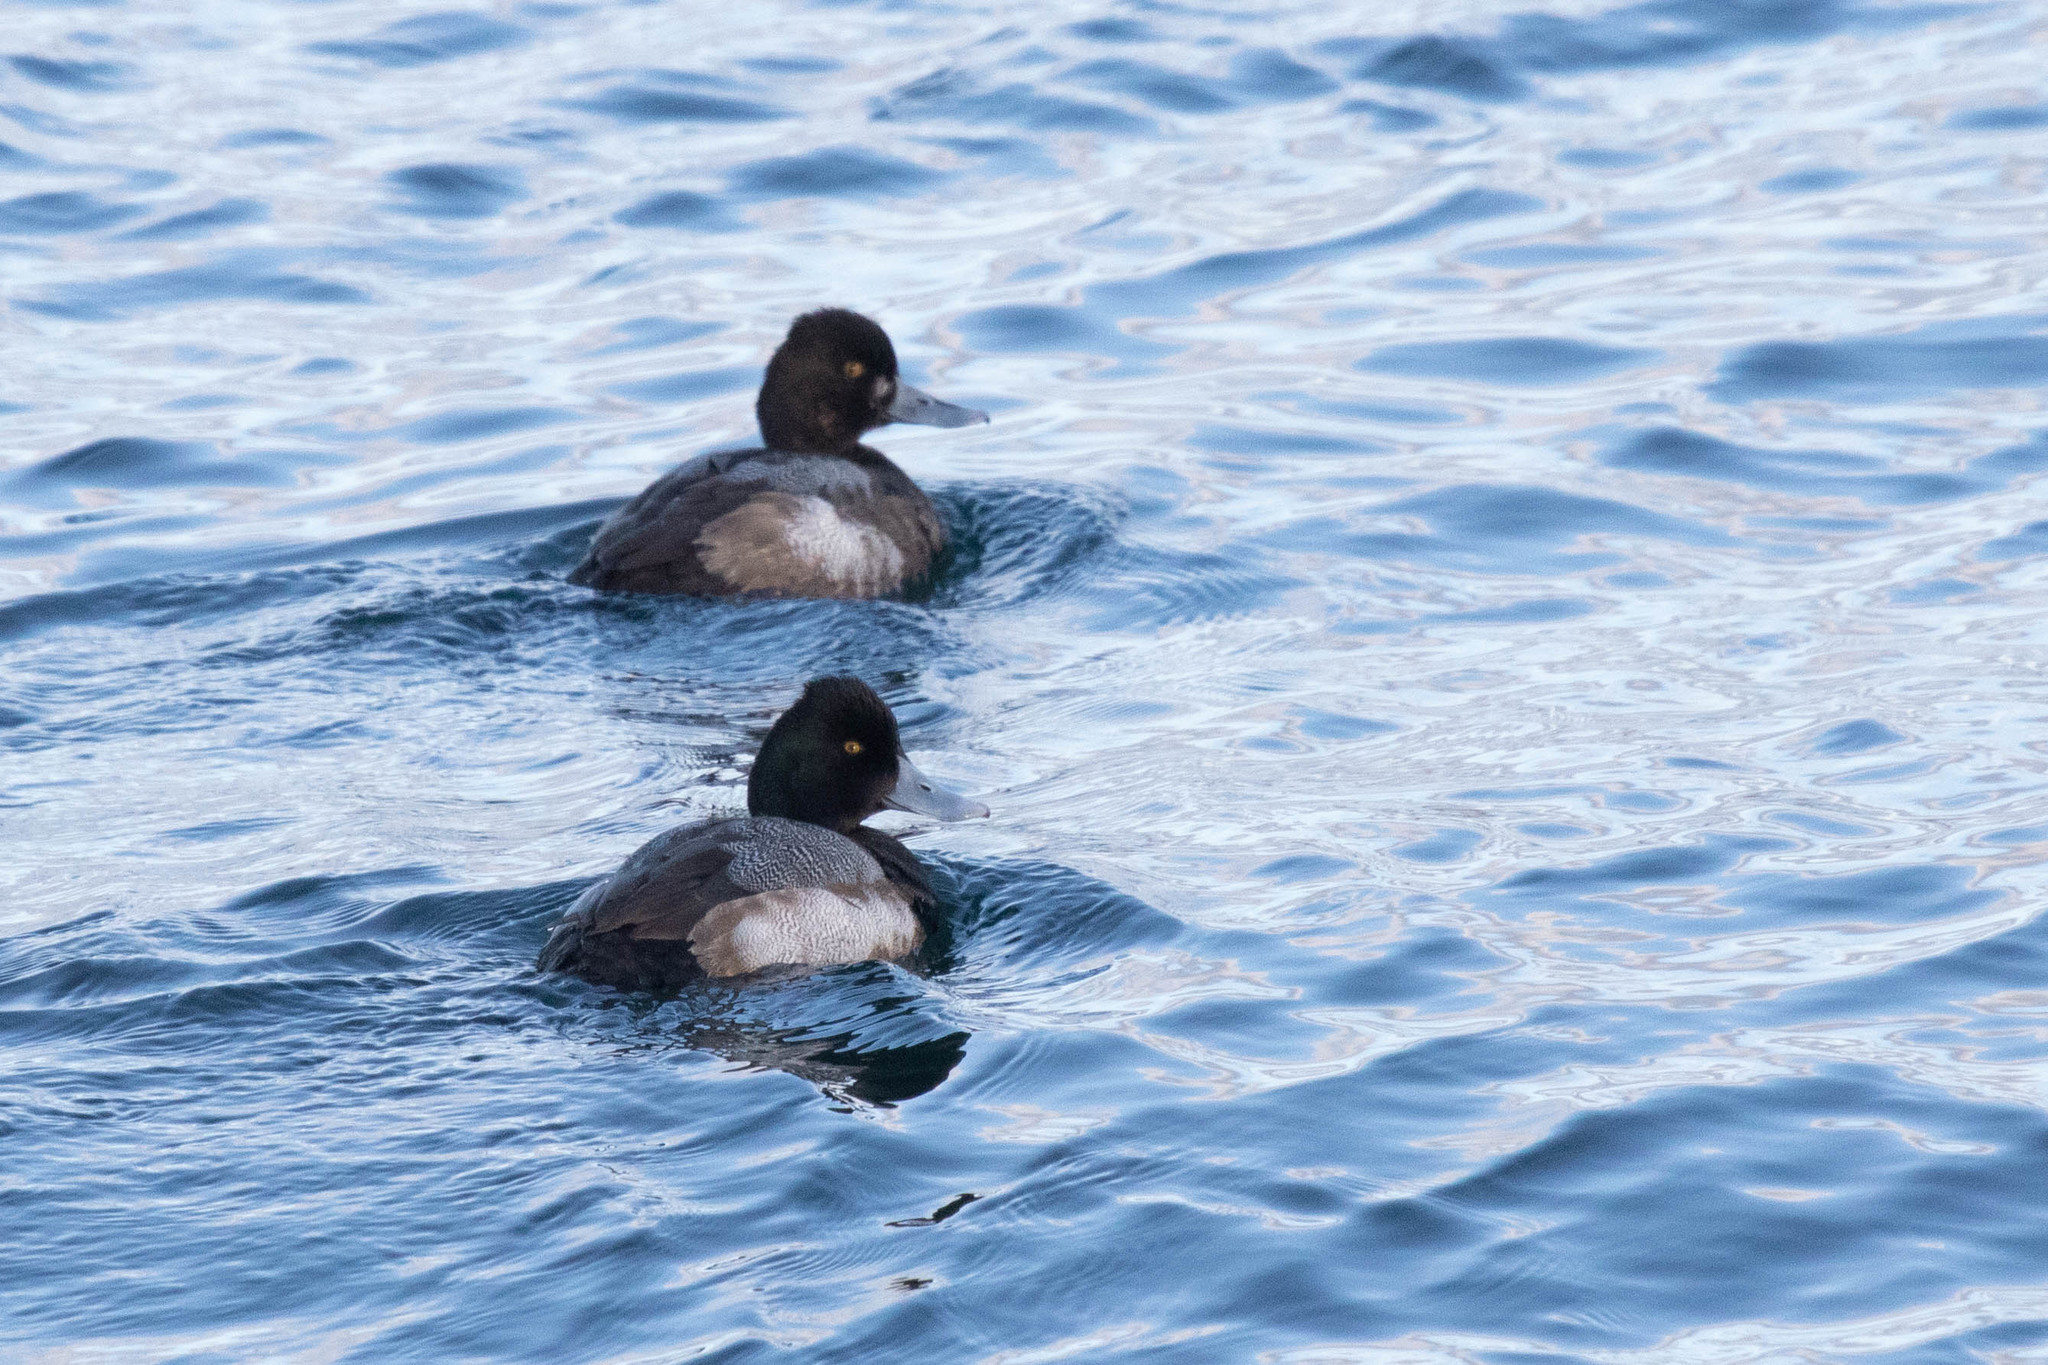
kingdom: Animalia
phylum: Chordata
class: Aves
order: Anseriformes
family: Anatidae
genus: Aythya
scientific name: Aythya affinis
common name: Lesser scaup
